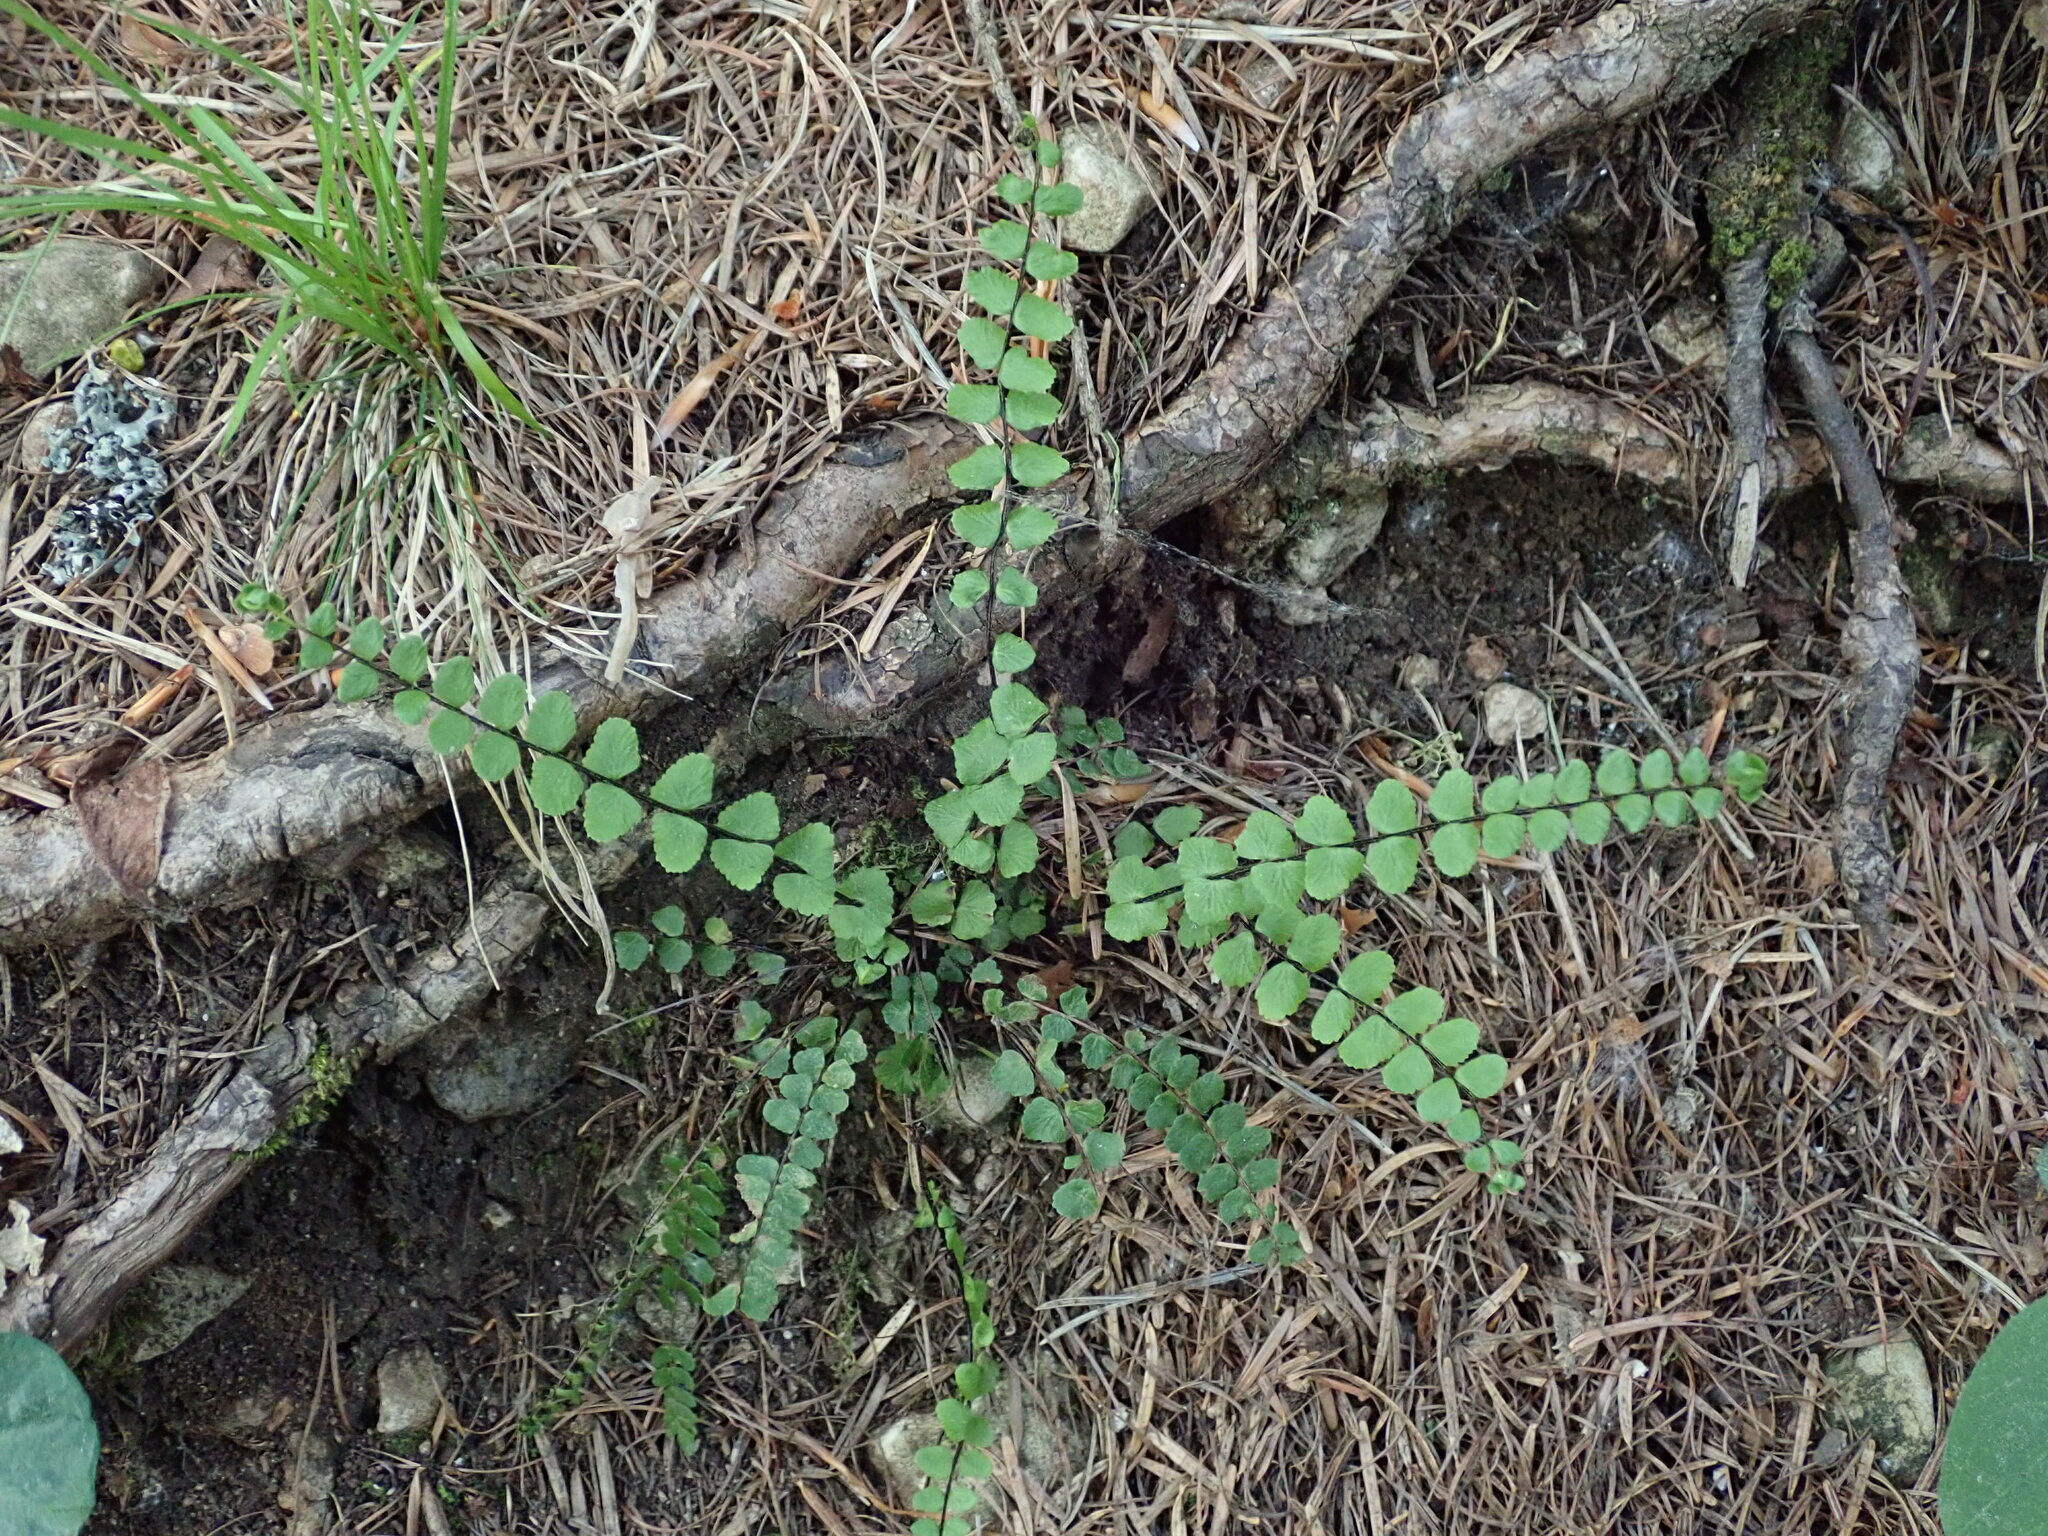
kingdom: Plantae
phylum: Tracheophyta
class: Polypodiopsida
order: Polypodiales
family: Aspleniaceae
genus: Asplenium
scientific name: Asplenium trichomanes
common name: Maidenhair spleenwort
